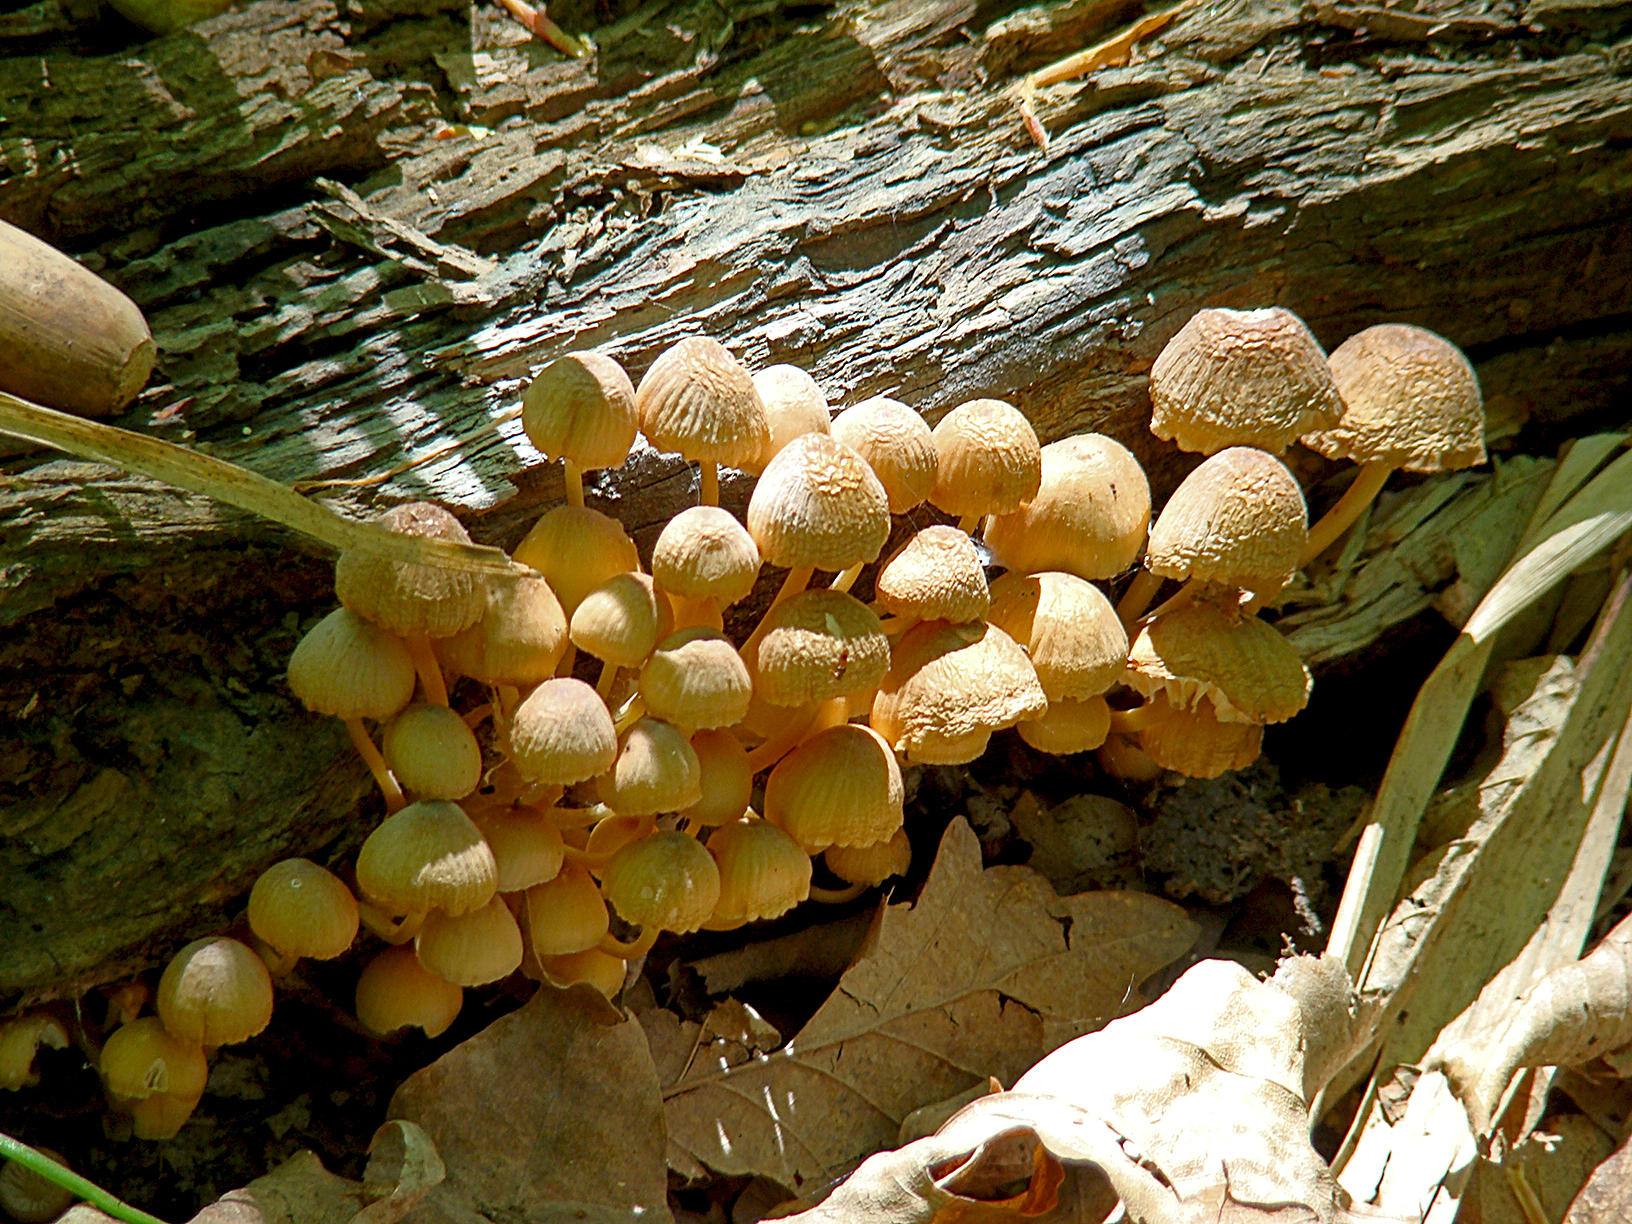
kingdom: Fungi
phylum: Basidiomycota
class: Agaricomycetes
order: Agaricales
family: Mycenaceae
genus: Mycena
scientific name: Mycena renati
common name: Beautiful bonnet
